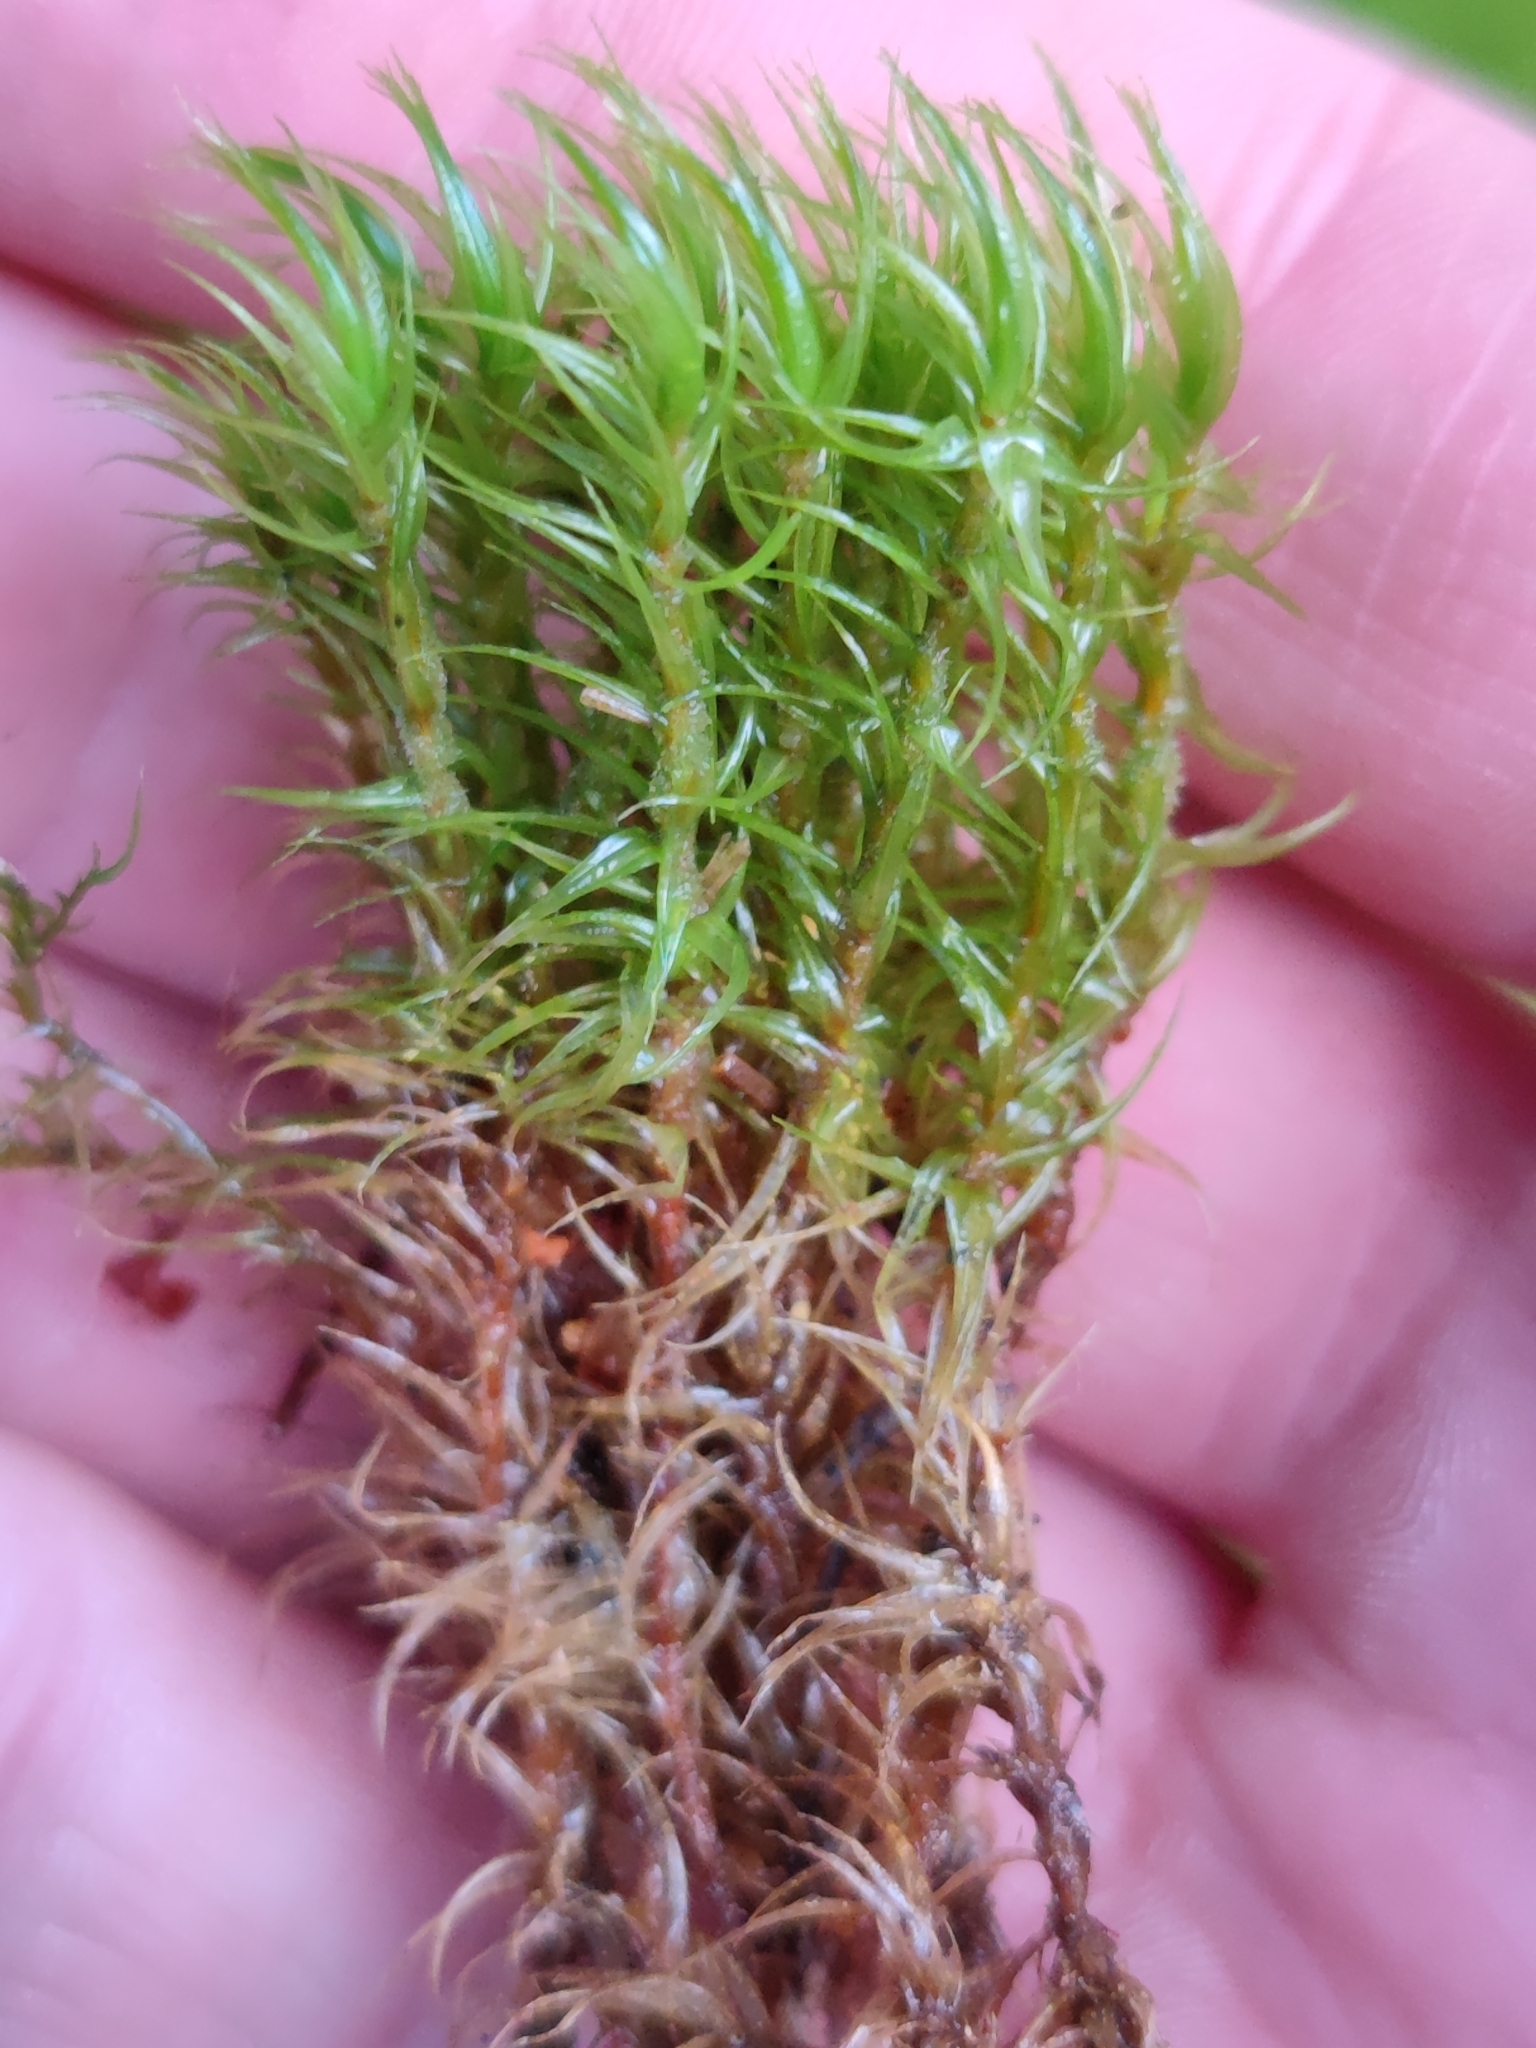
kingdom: Plantae
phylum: Bryophyta
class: Bryopsida
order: Dicranales
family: Dicranaceae
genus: Dicranum
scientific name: Dicranum scoparium
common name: Broom fork-moss
